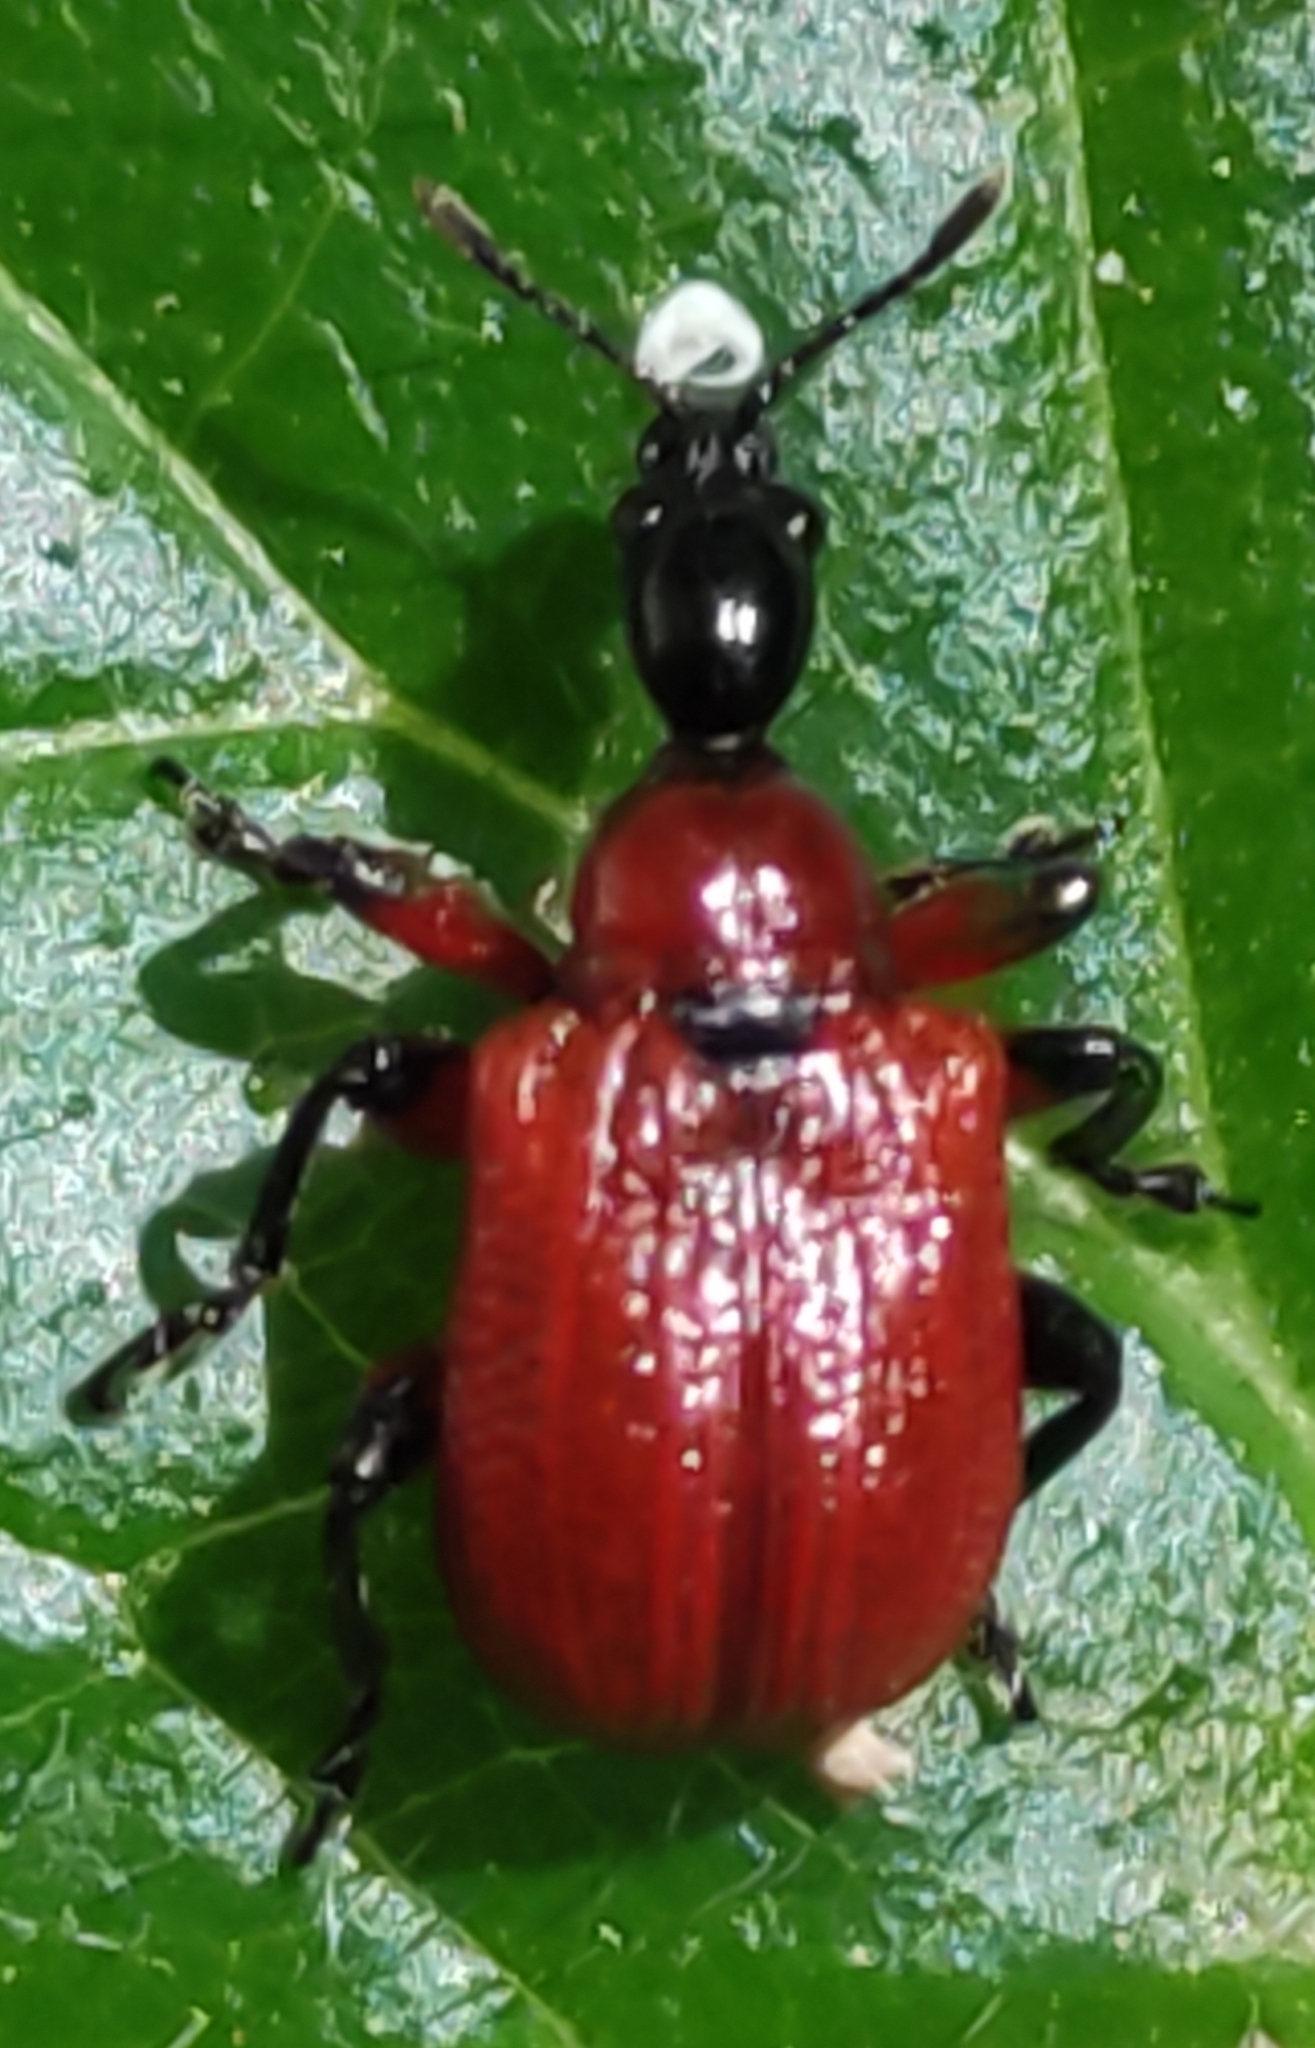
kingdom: Animalia
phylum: Arthropoda
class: Insecta
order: Coleoptera
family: Attelabidae
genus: Apoderus
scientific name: Apoderus coryli
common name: Hazel leaf roller
